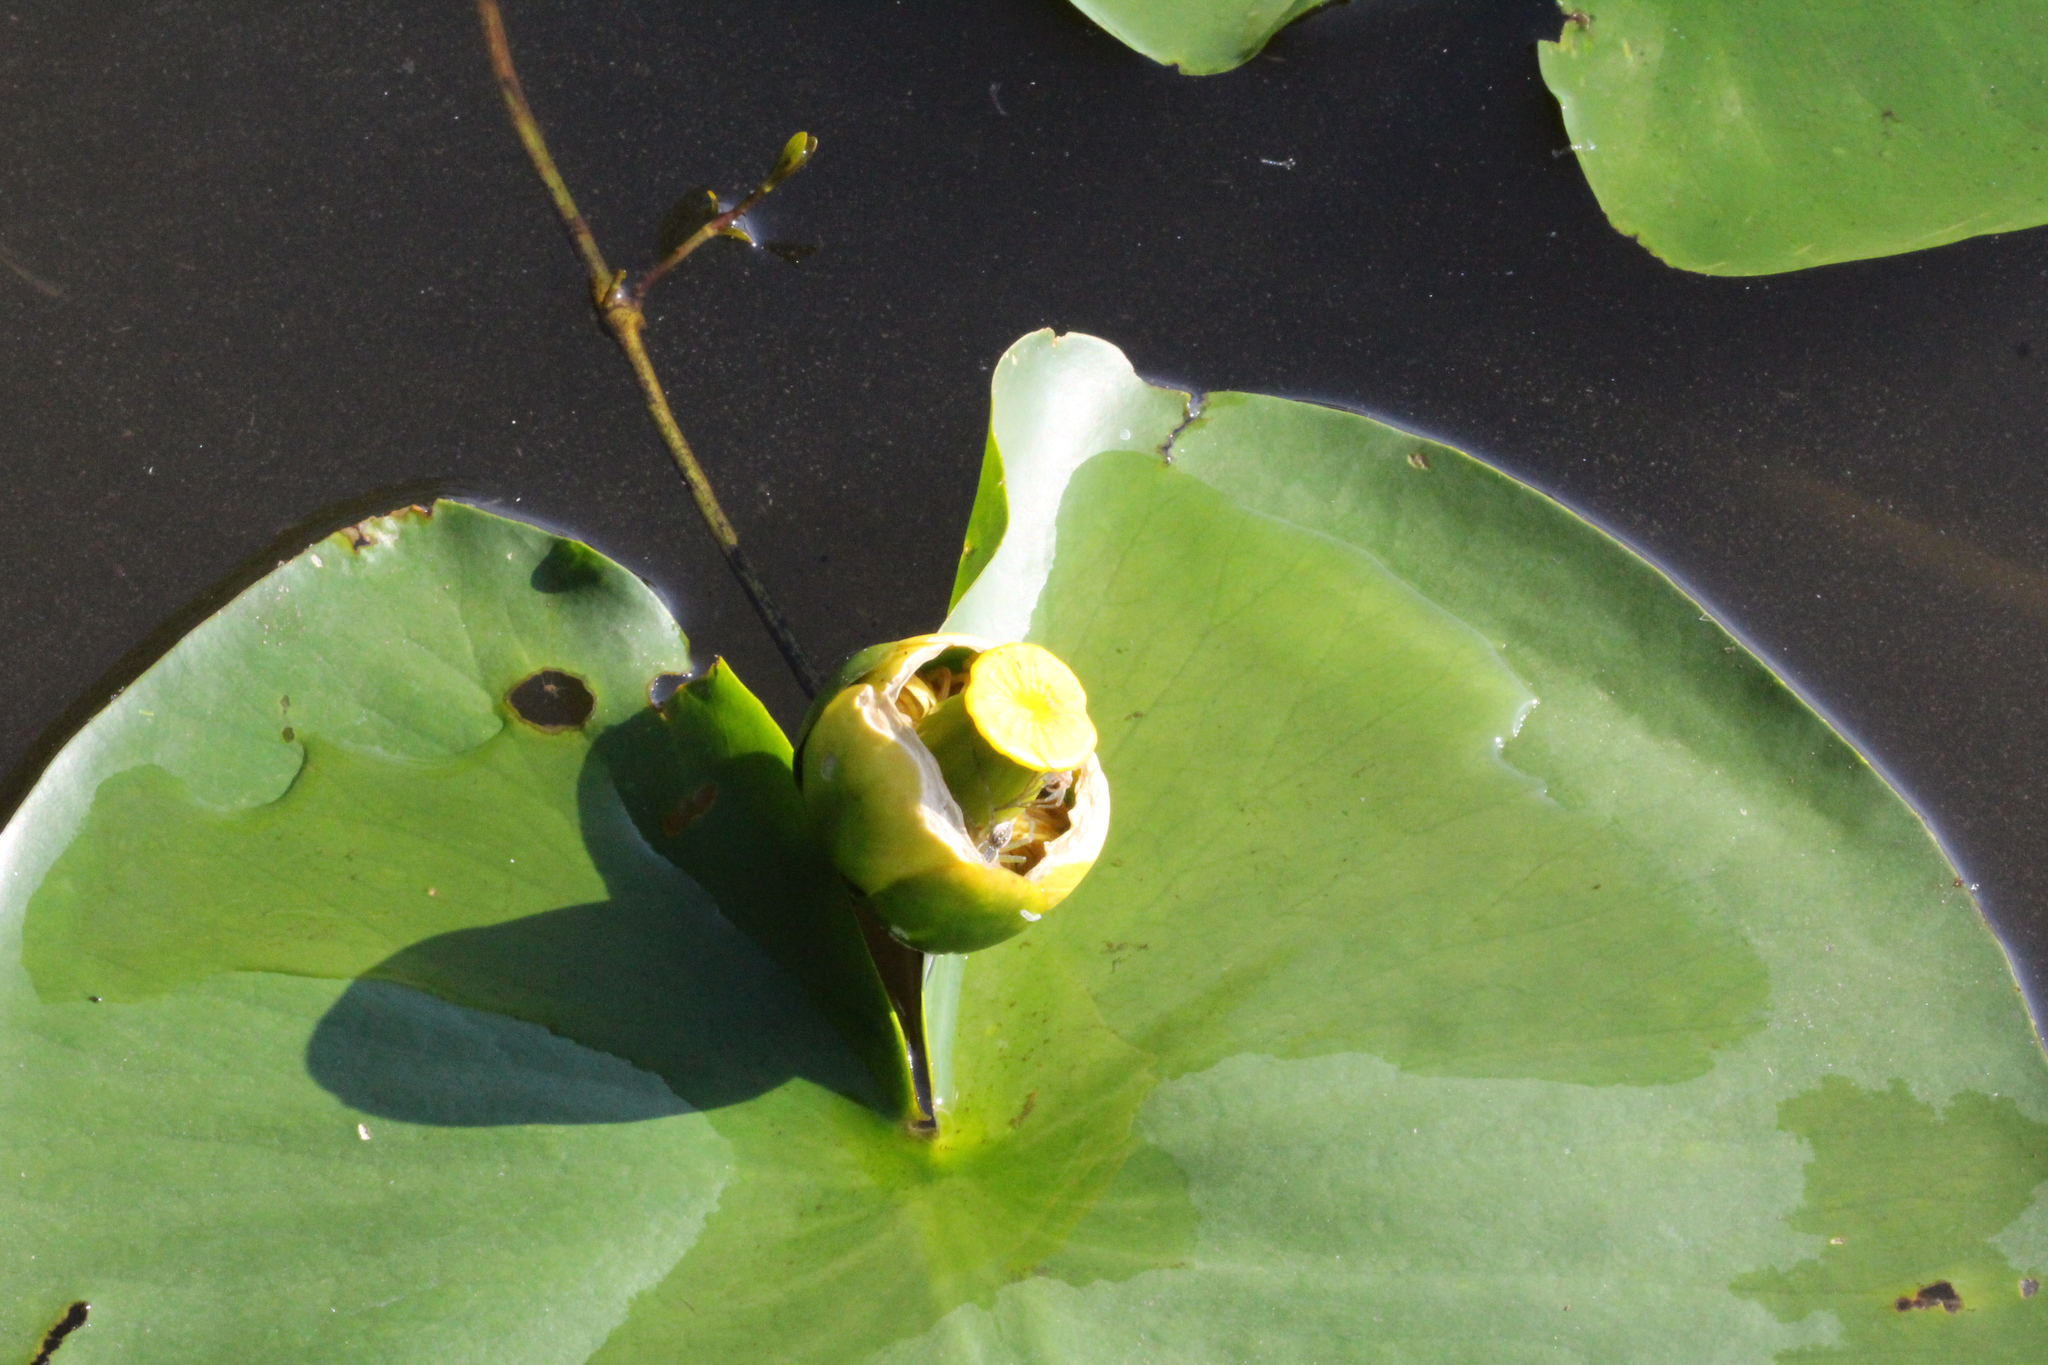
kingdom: Plantae
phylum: Tracheophyta
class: Magnoliopsida
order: Nymphaeales
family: Nymphaeaceae
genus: Nuphar
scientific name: Nuphar advena
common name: Spatter-dock
